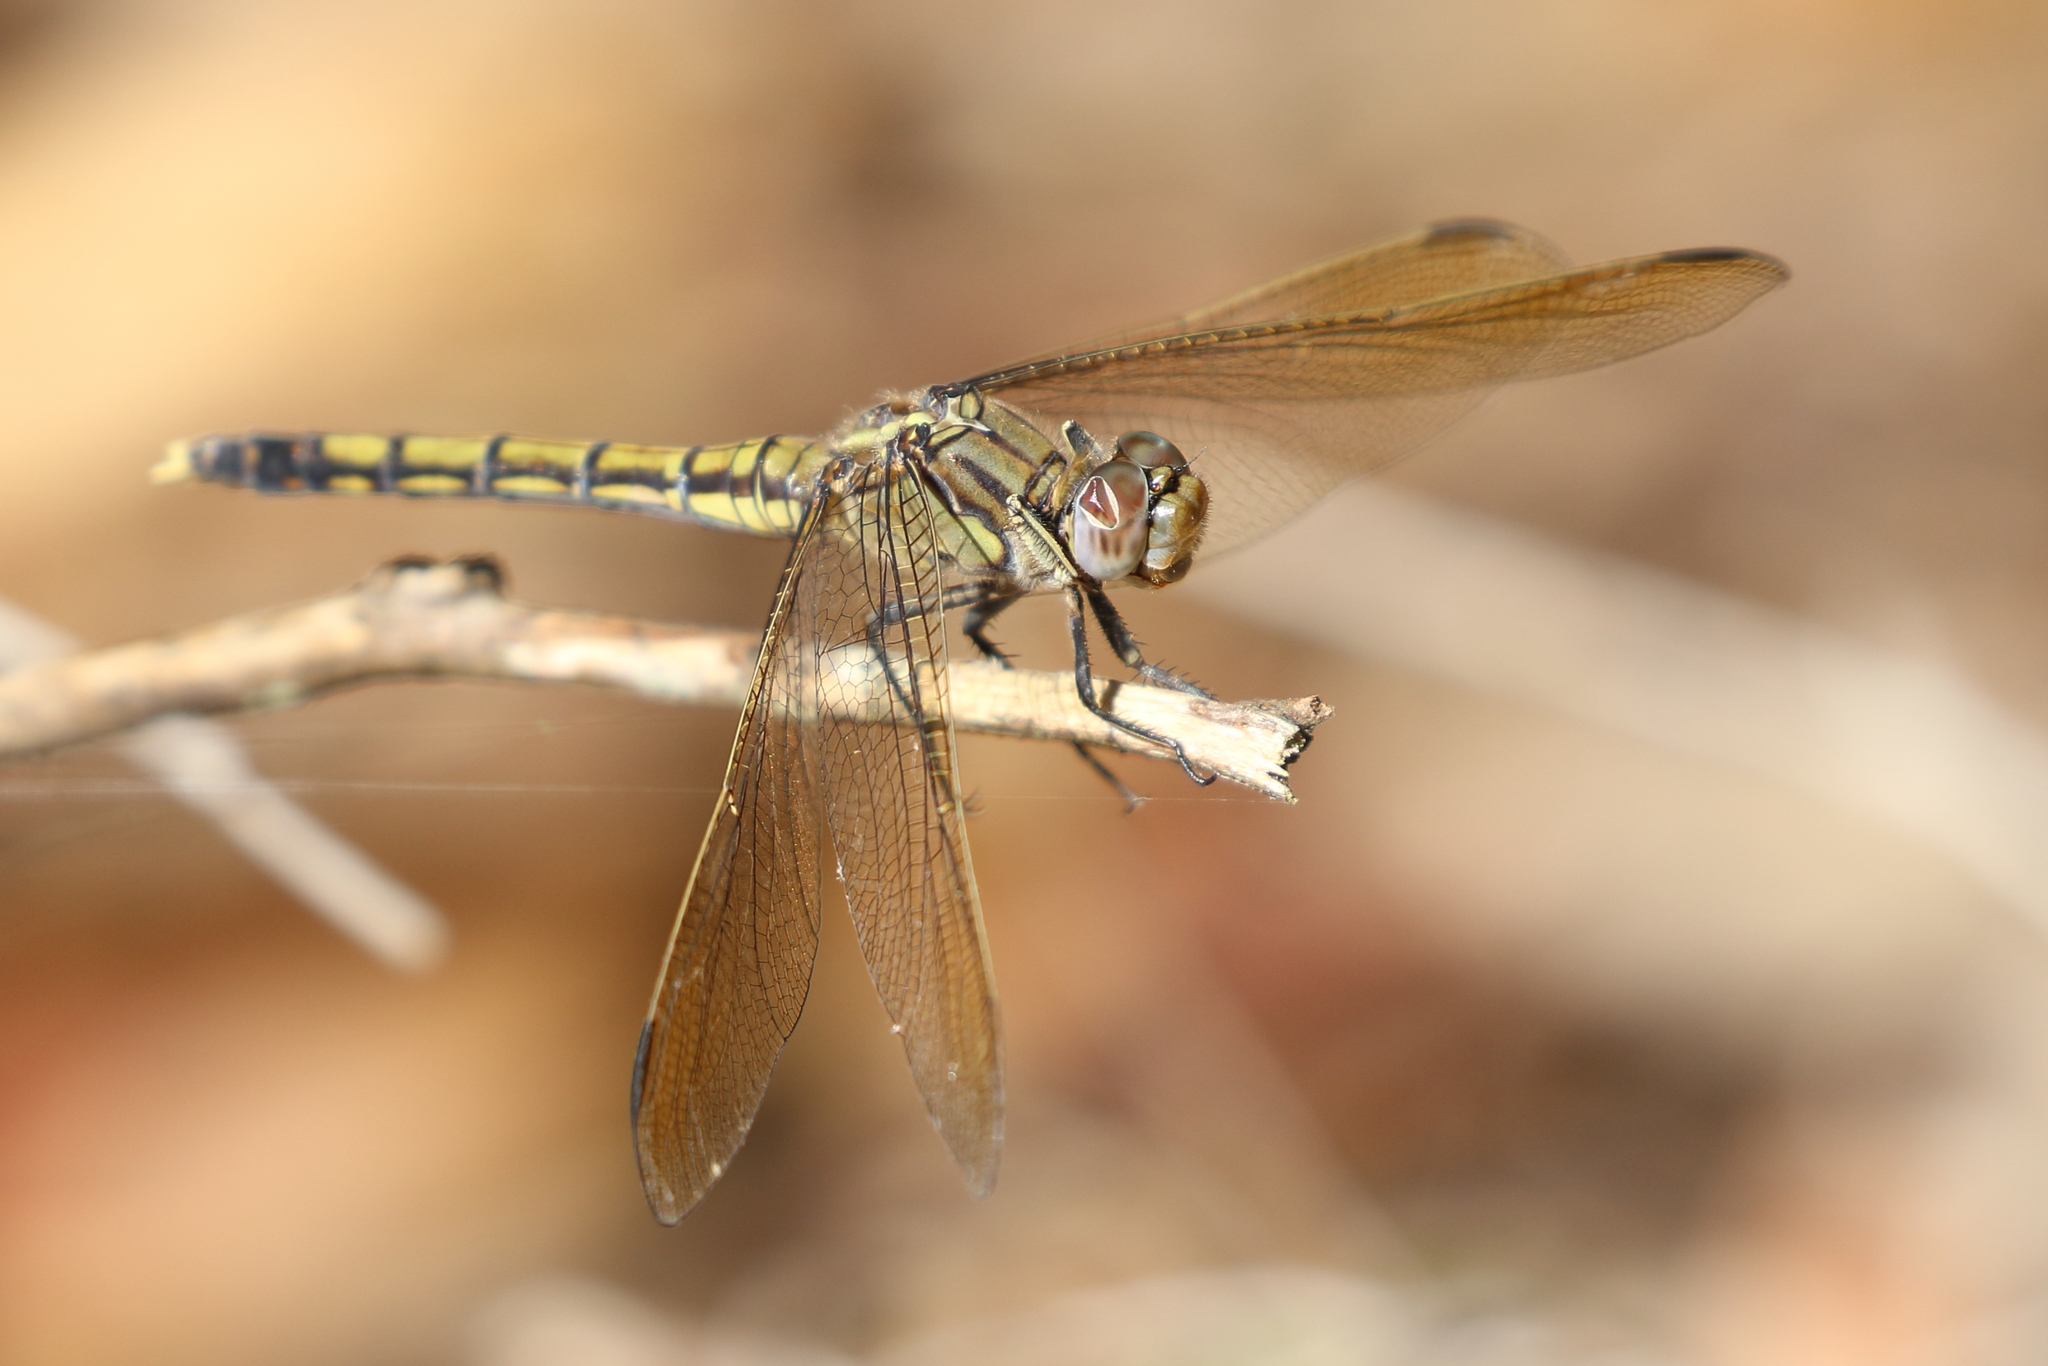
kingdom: Animalia
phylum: Arthropoda
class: Insecta
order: Odonata
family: Libellulidae
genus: Orthetrum
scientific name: Orthetrum caledonicum
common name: Blue skimmer
